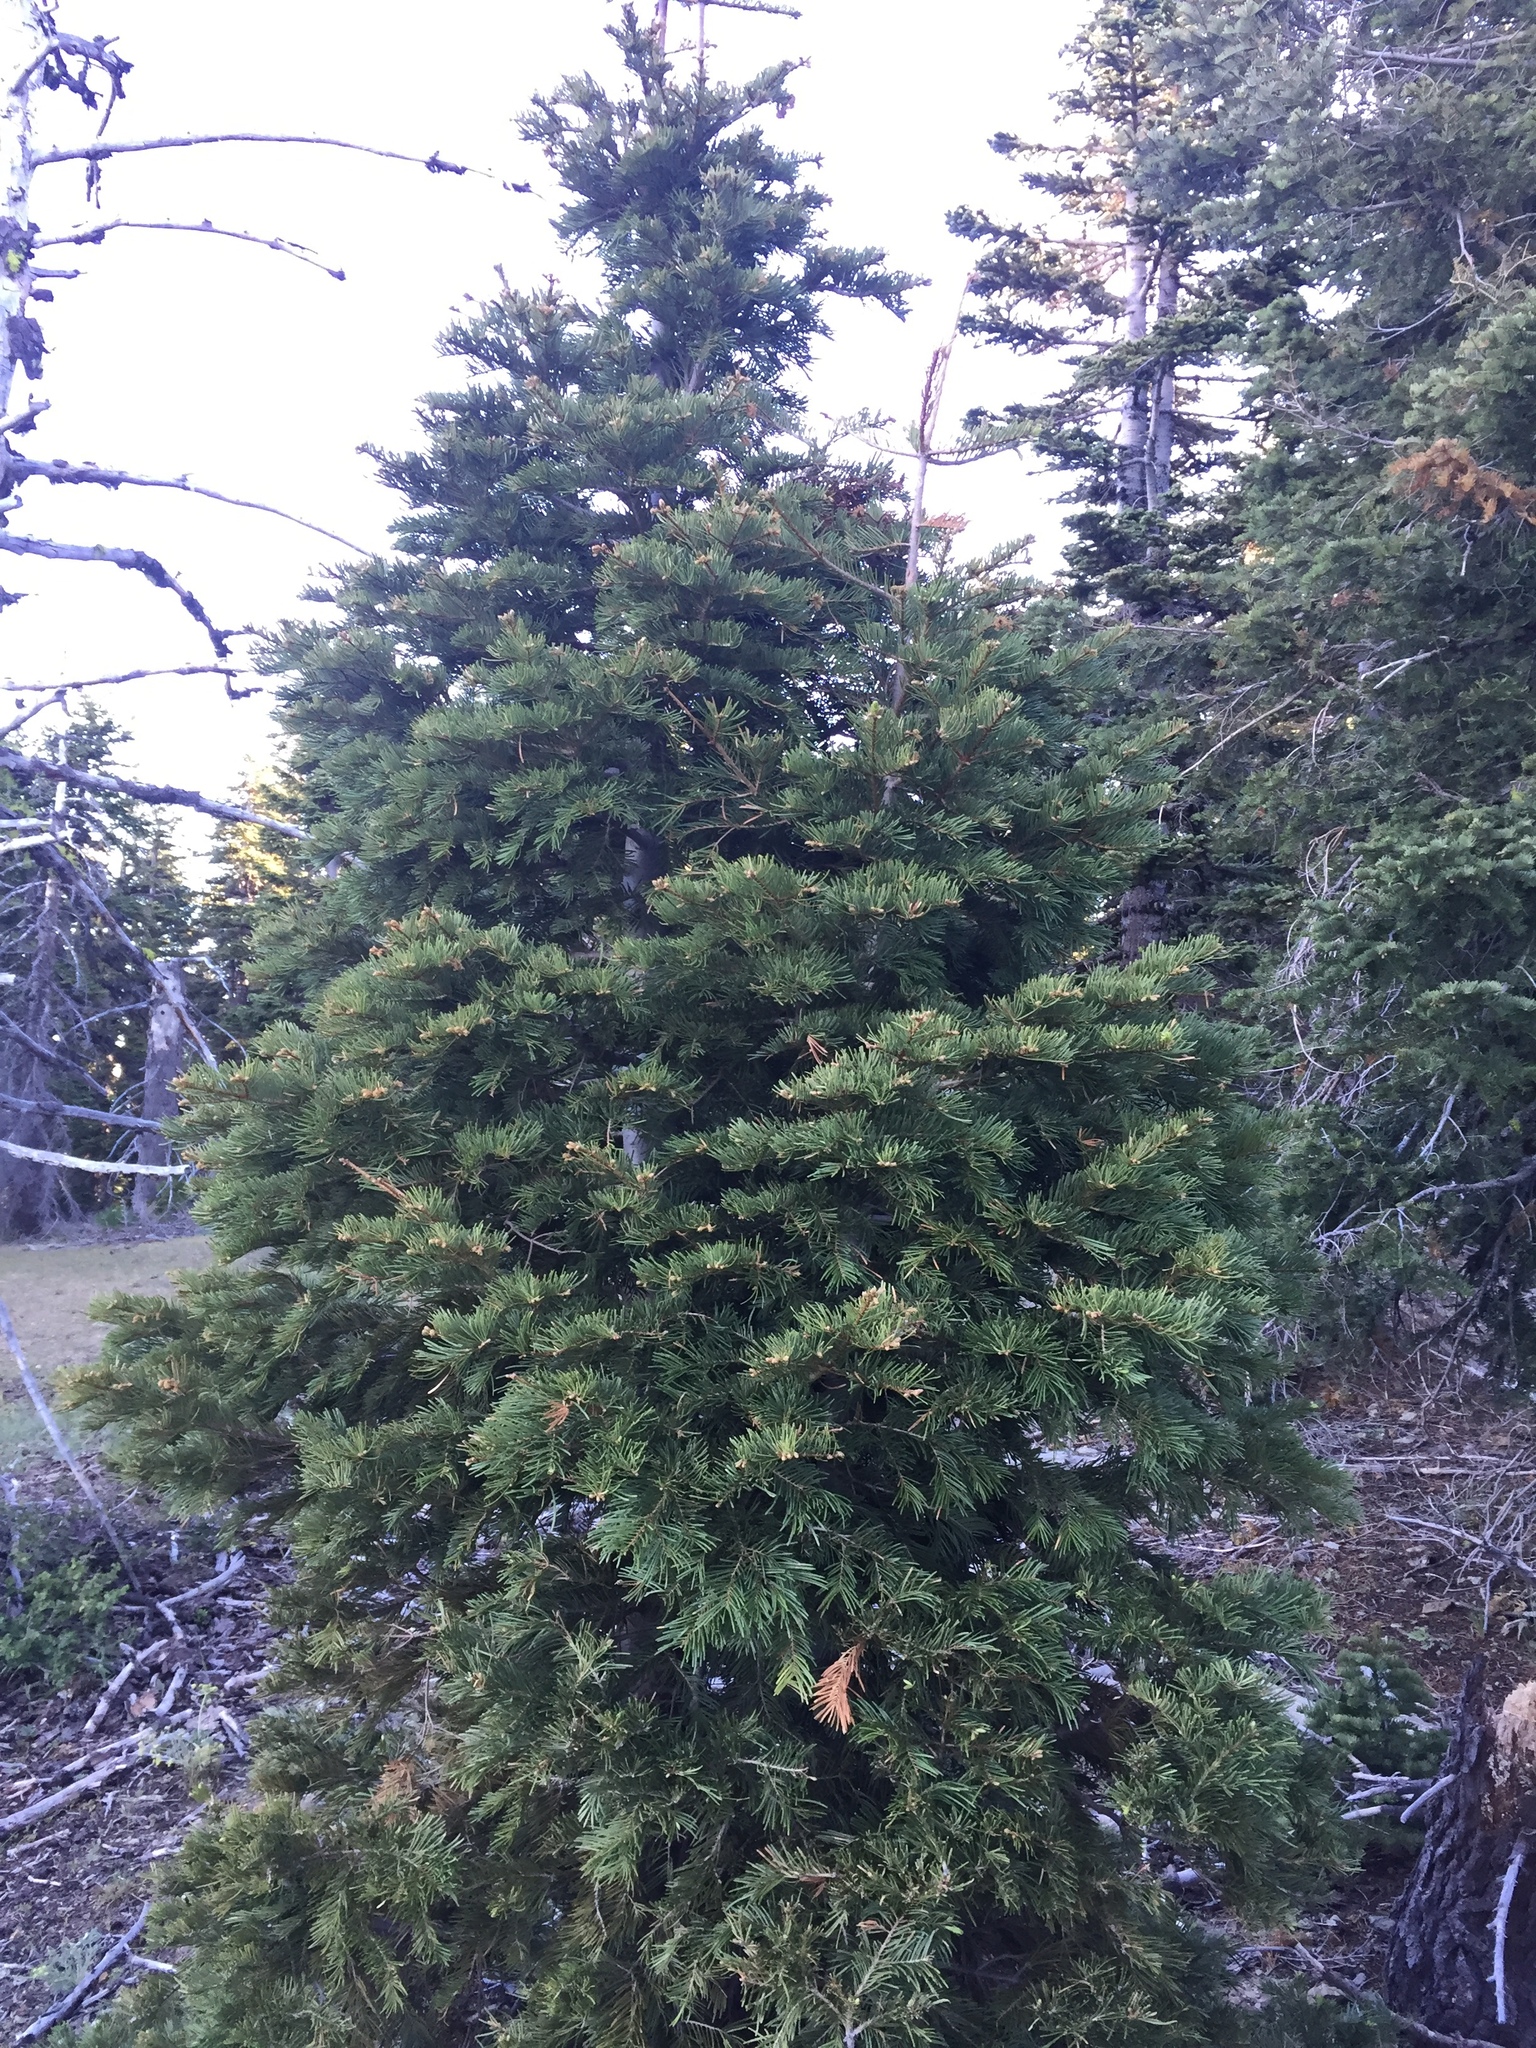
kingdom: Plantae
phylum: Tracheophyta
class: Pinopsida
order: Pinales
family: Pinaceae
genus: Abies
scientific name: Abies concolor
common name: Colorado fir
